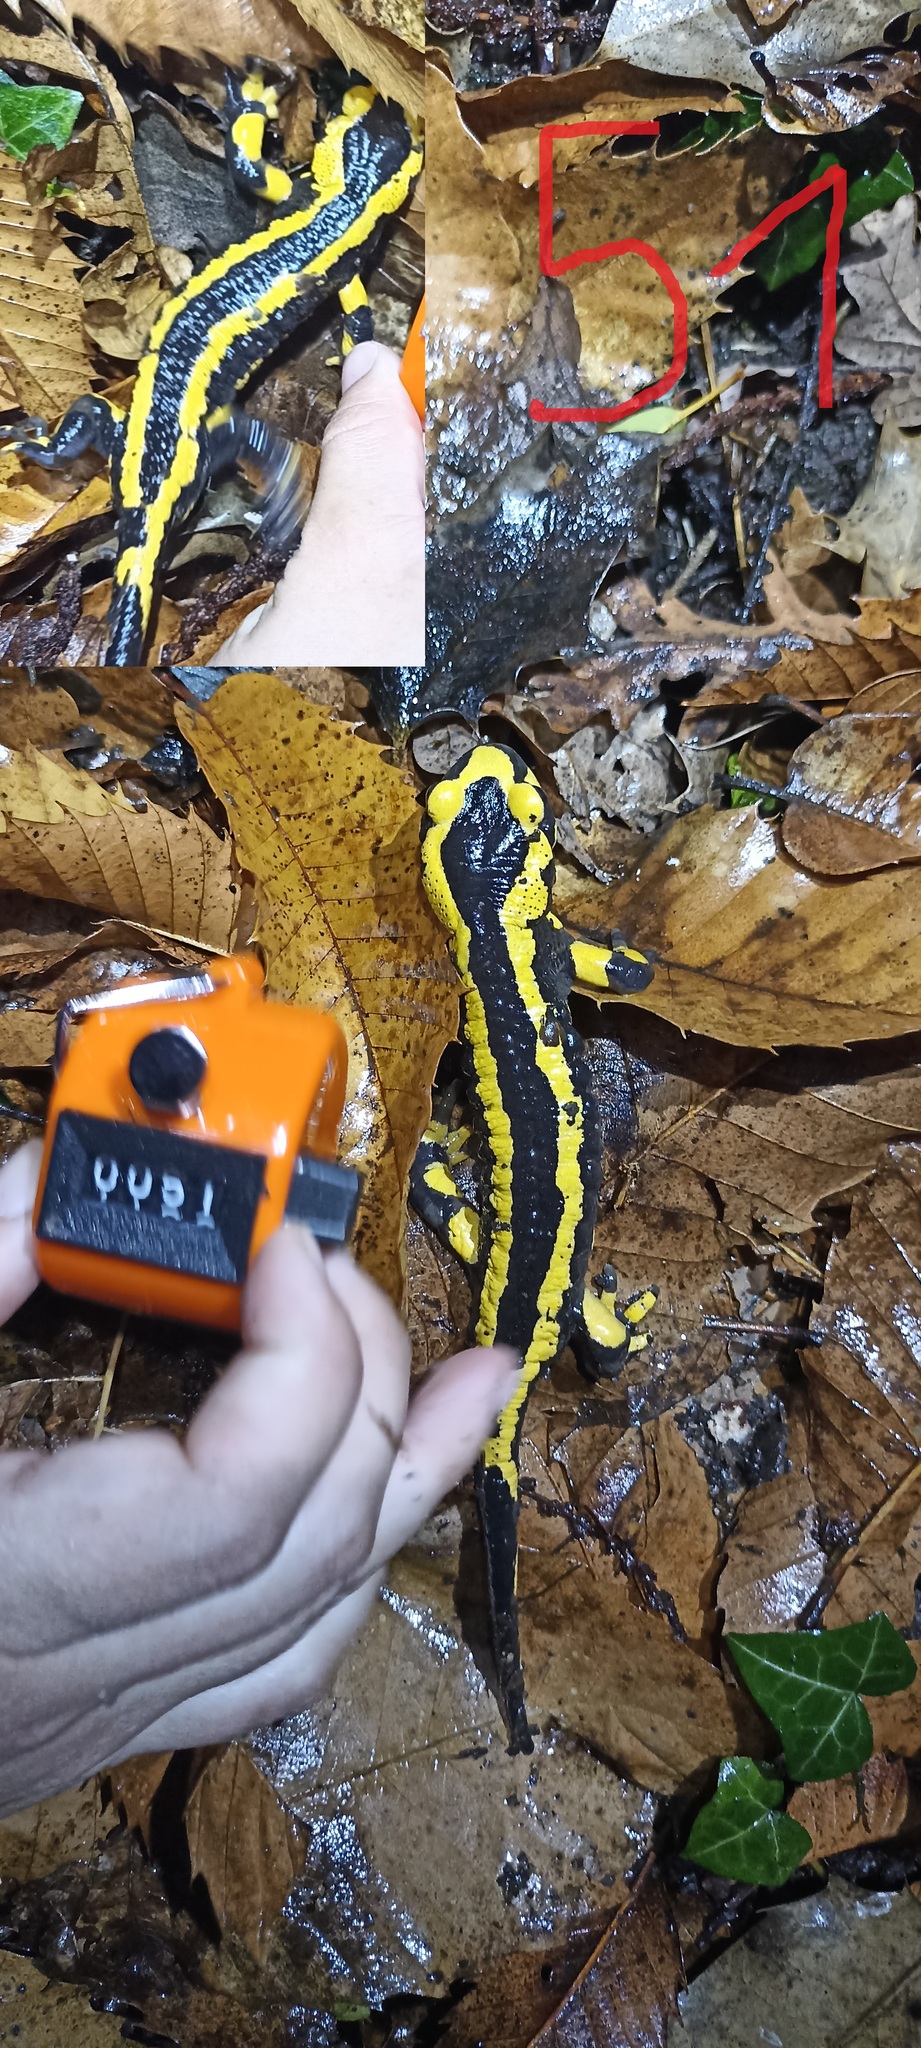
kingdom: Animalia
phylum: Chordata
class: Amphibia
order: Caudata
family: Salamandridae
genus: Salamandra
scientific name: Salamandra salamandra
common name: Fire salamander
